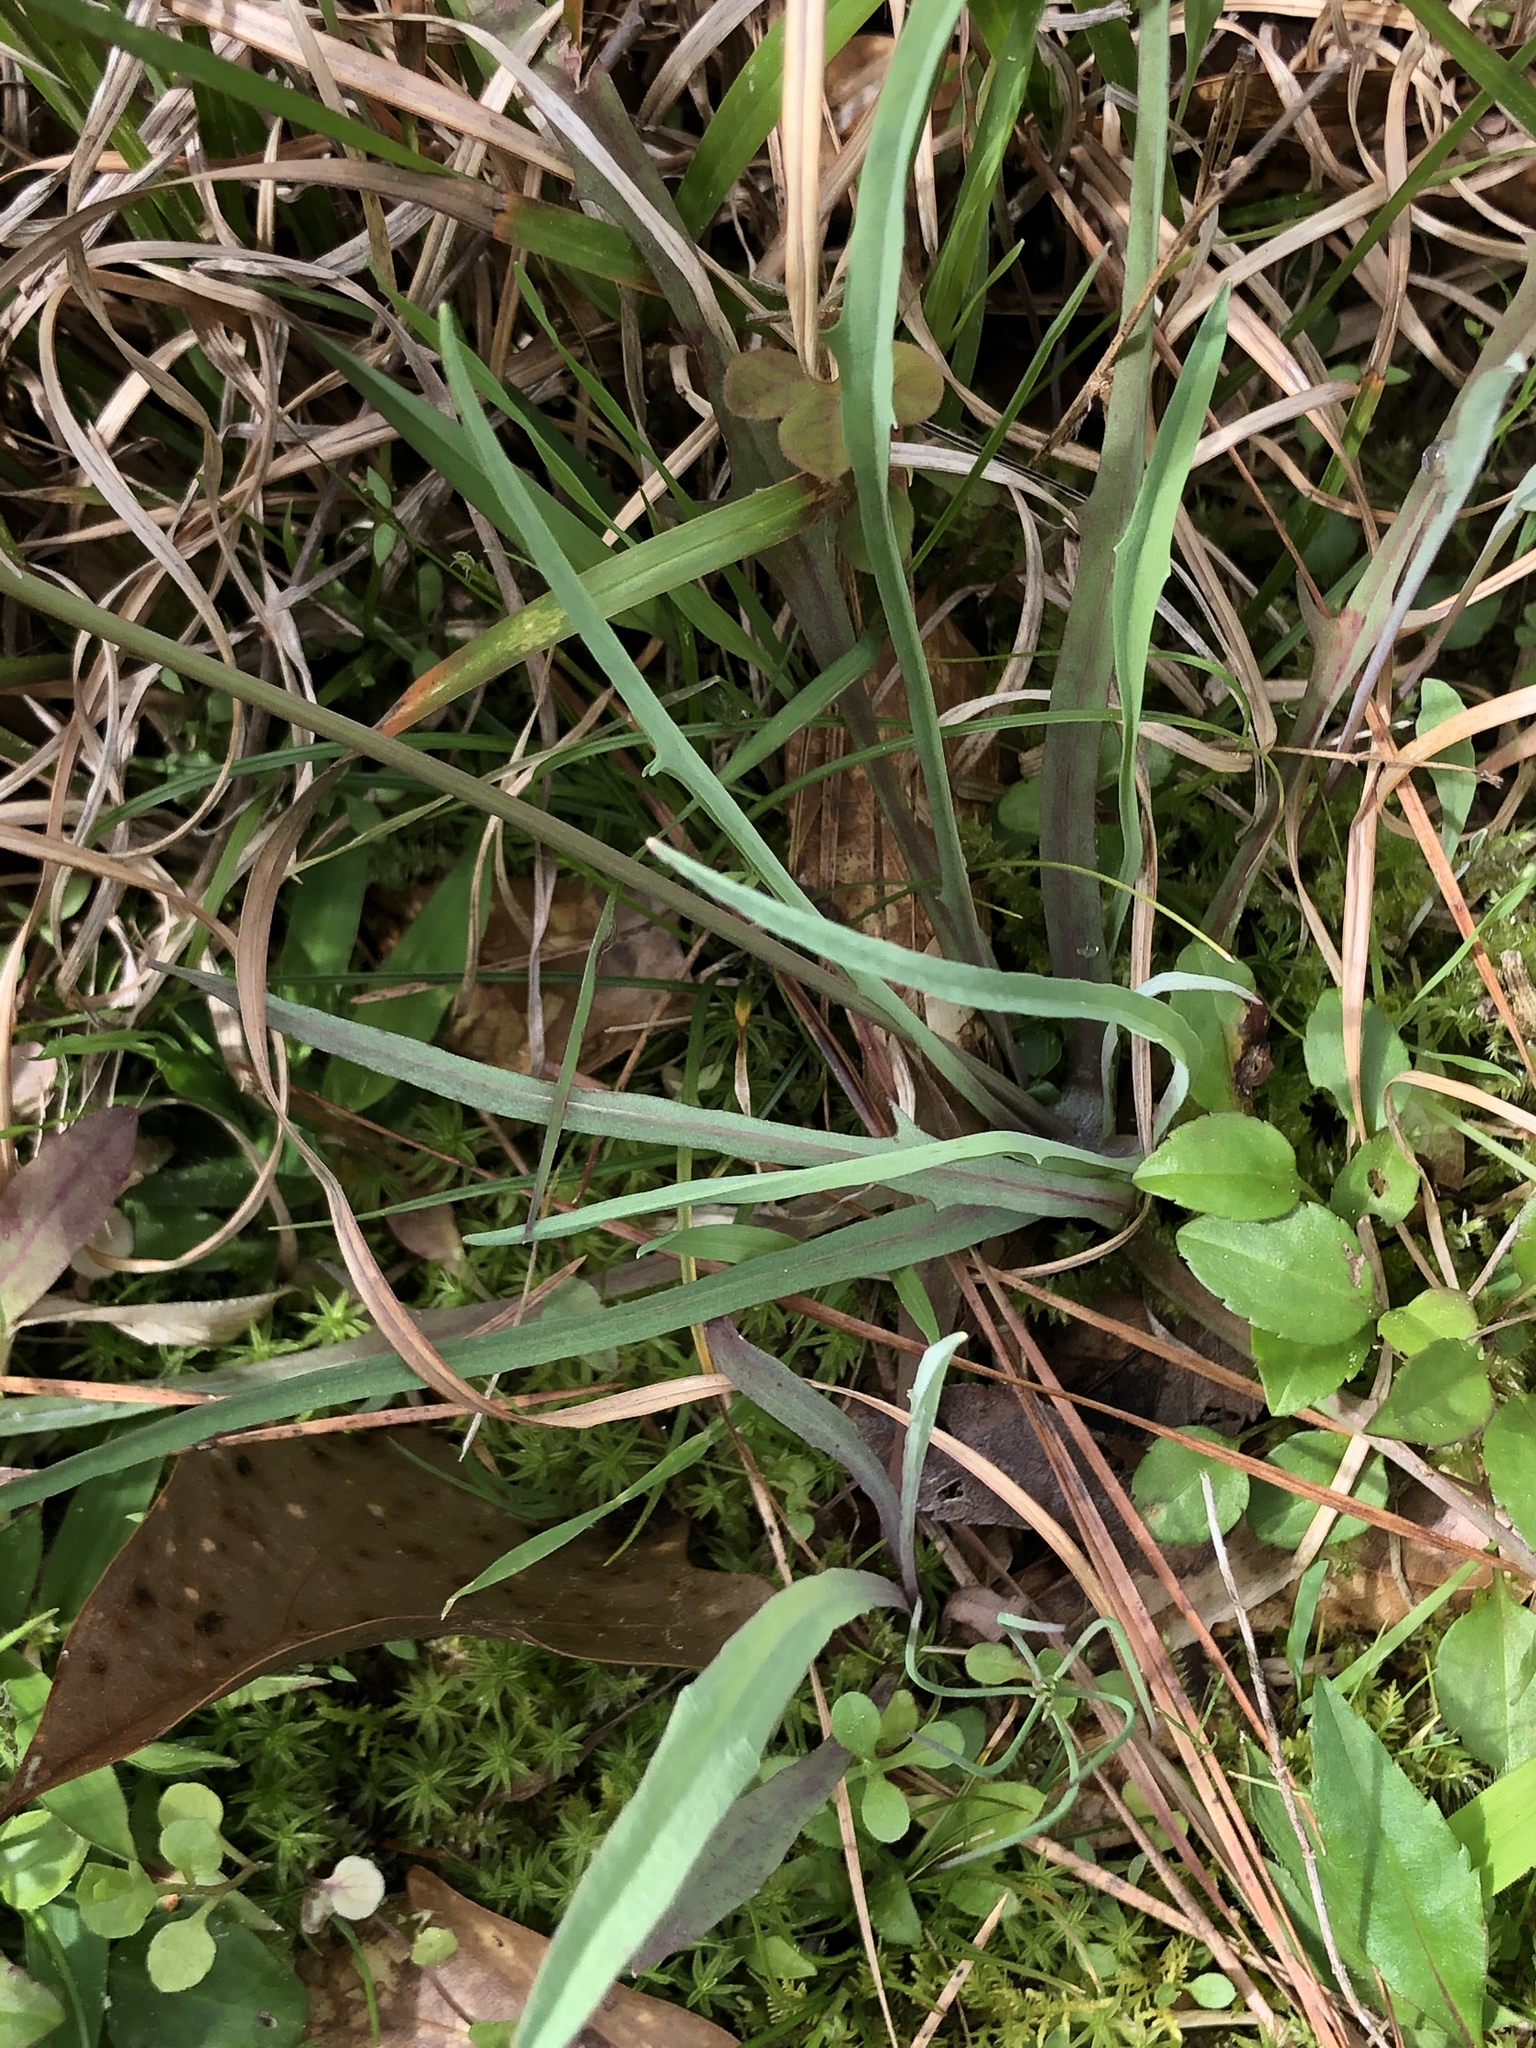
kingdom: Plantae
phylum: Tracheophyta
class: Magnoliopsida
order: Asterales
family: Asteraceae
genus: Krigia
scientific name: Krigia dandelion
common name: Colonial dwarf-dandelion
